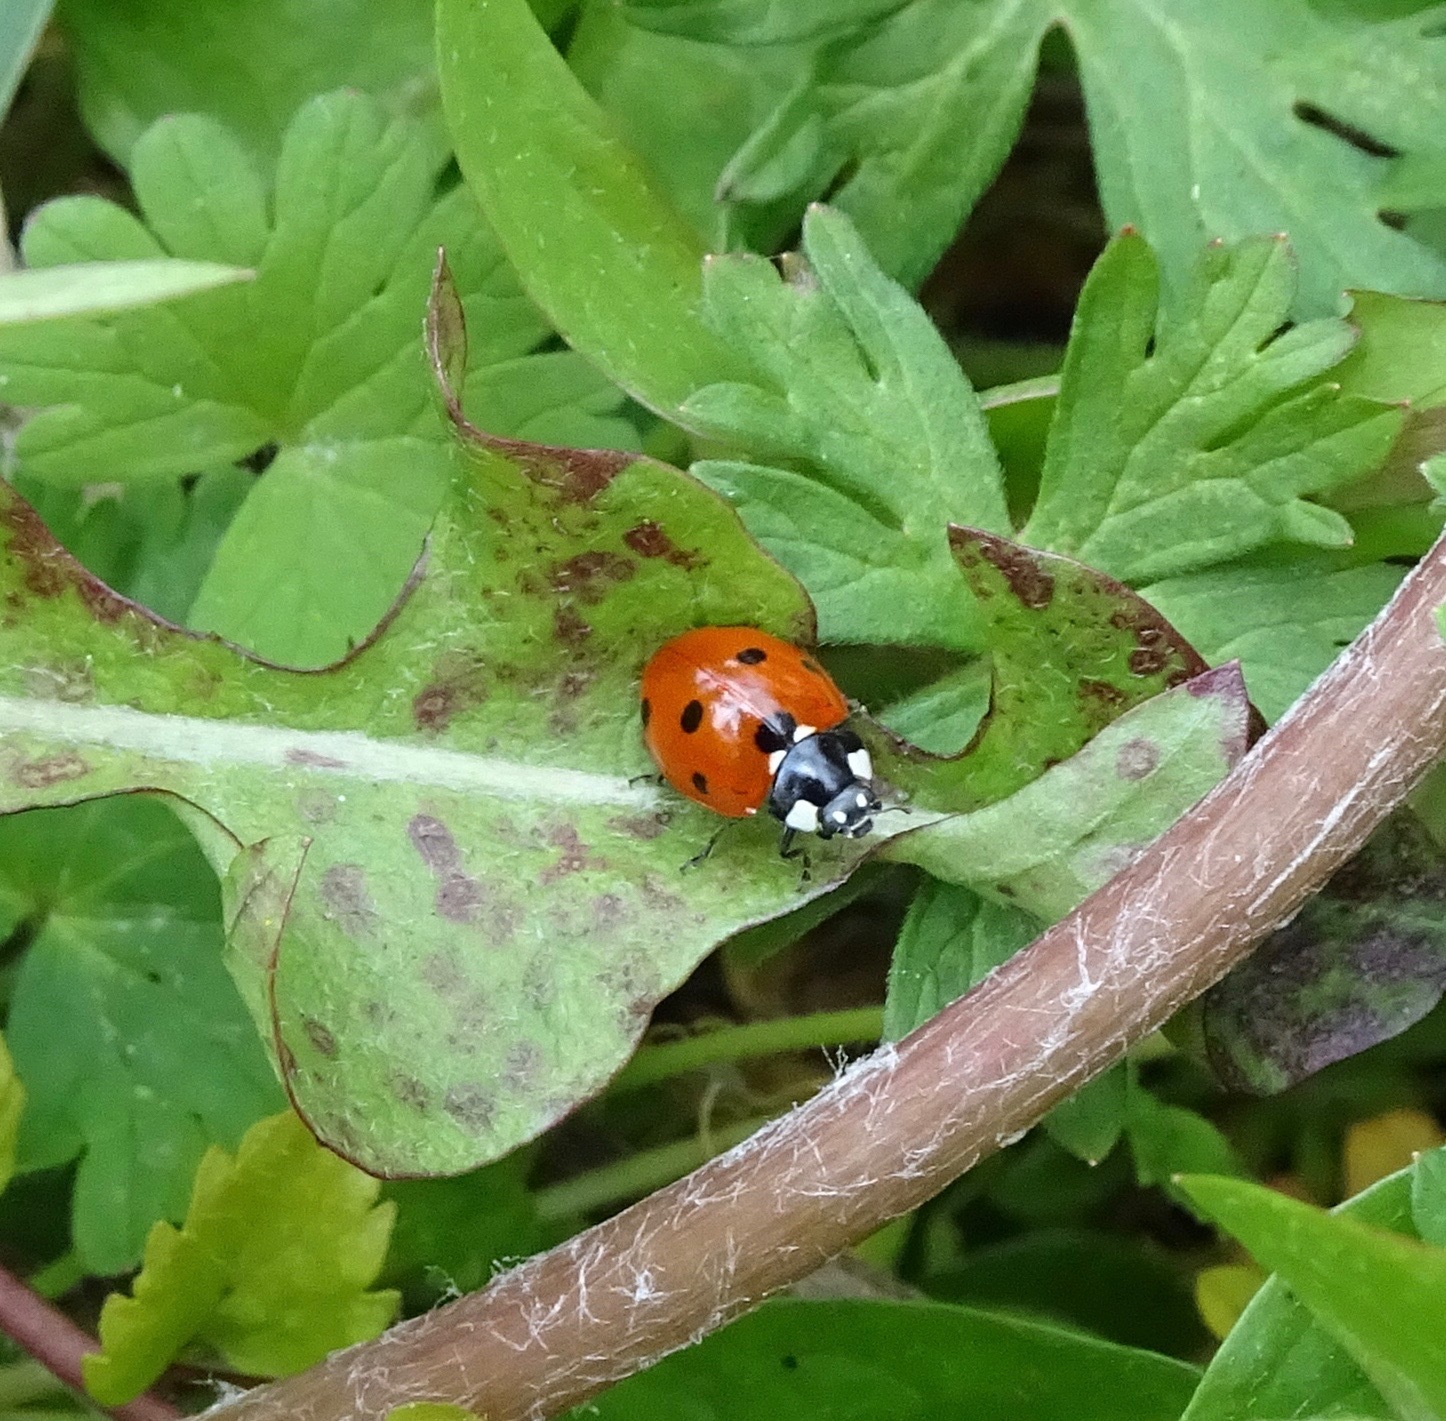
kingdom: Animalia
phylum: Arthropoda
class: Insecta
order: Coleoptera
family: Coccinellidae
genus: Coccinella
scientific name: Coccinella septempunctata
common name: Sevenspotted lady beetle
